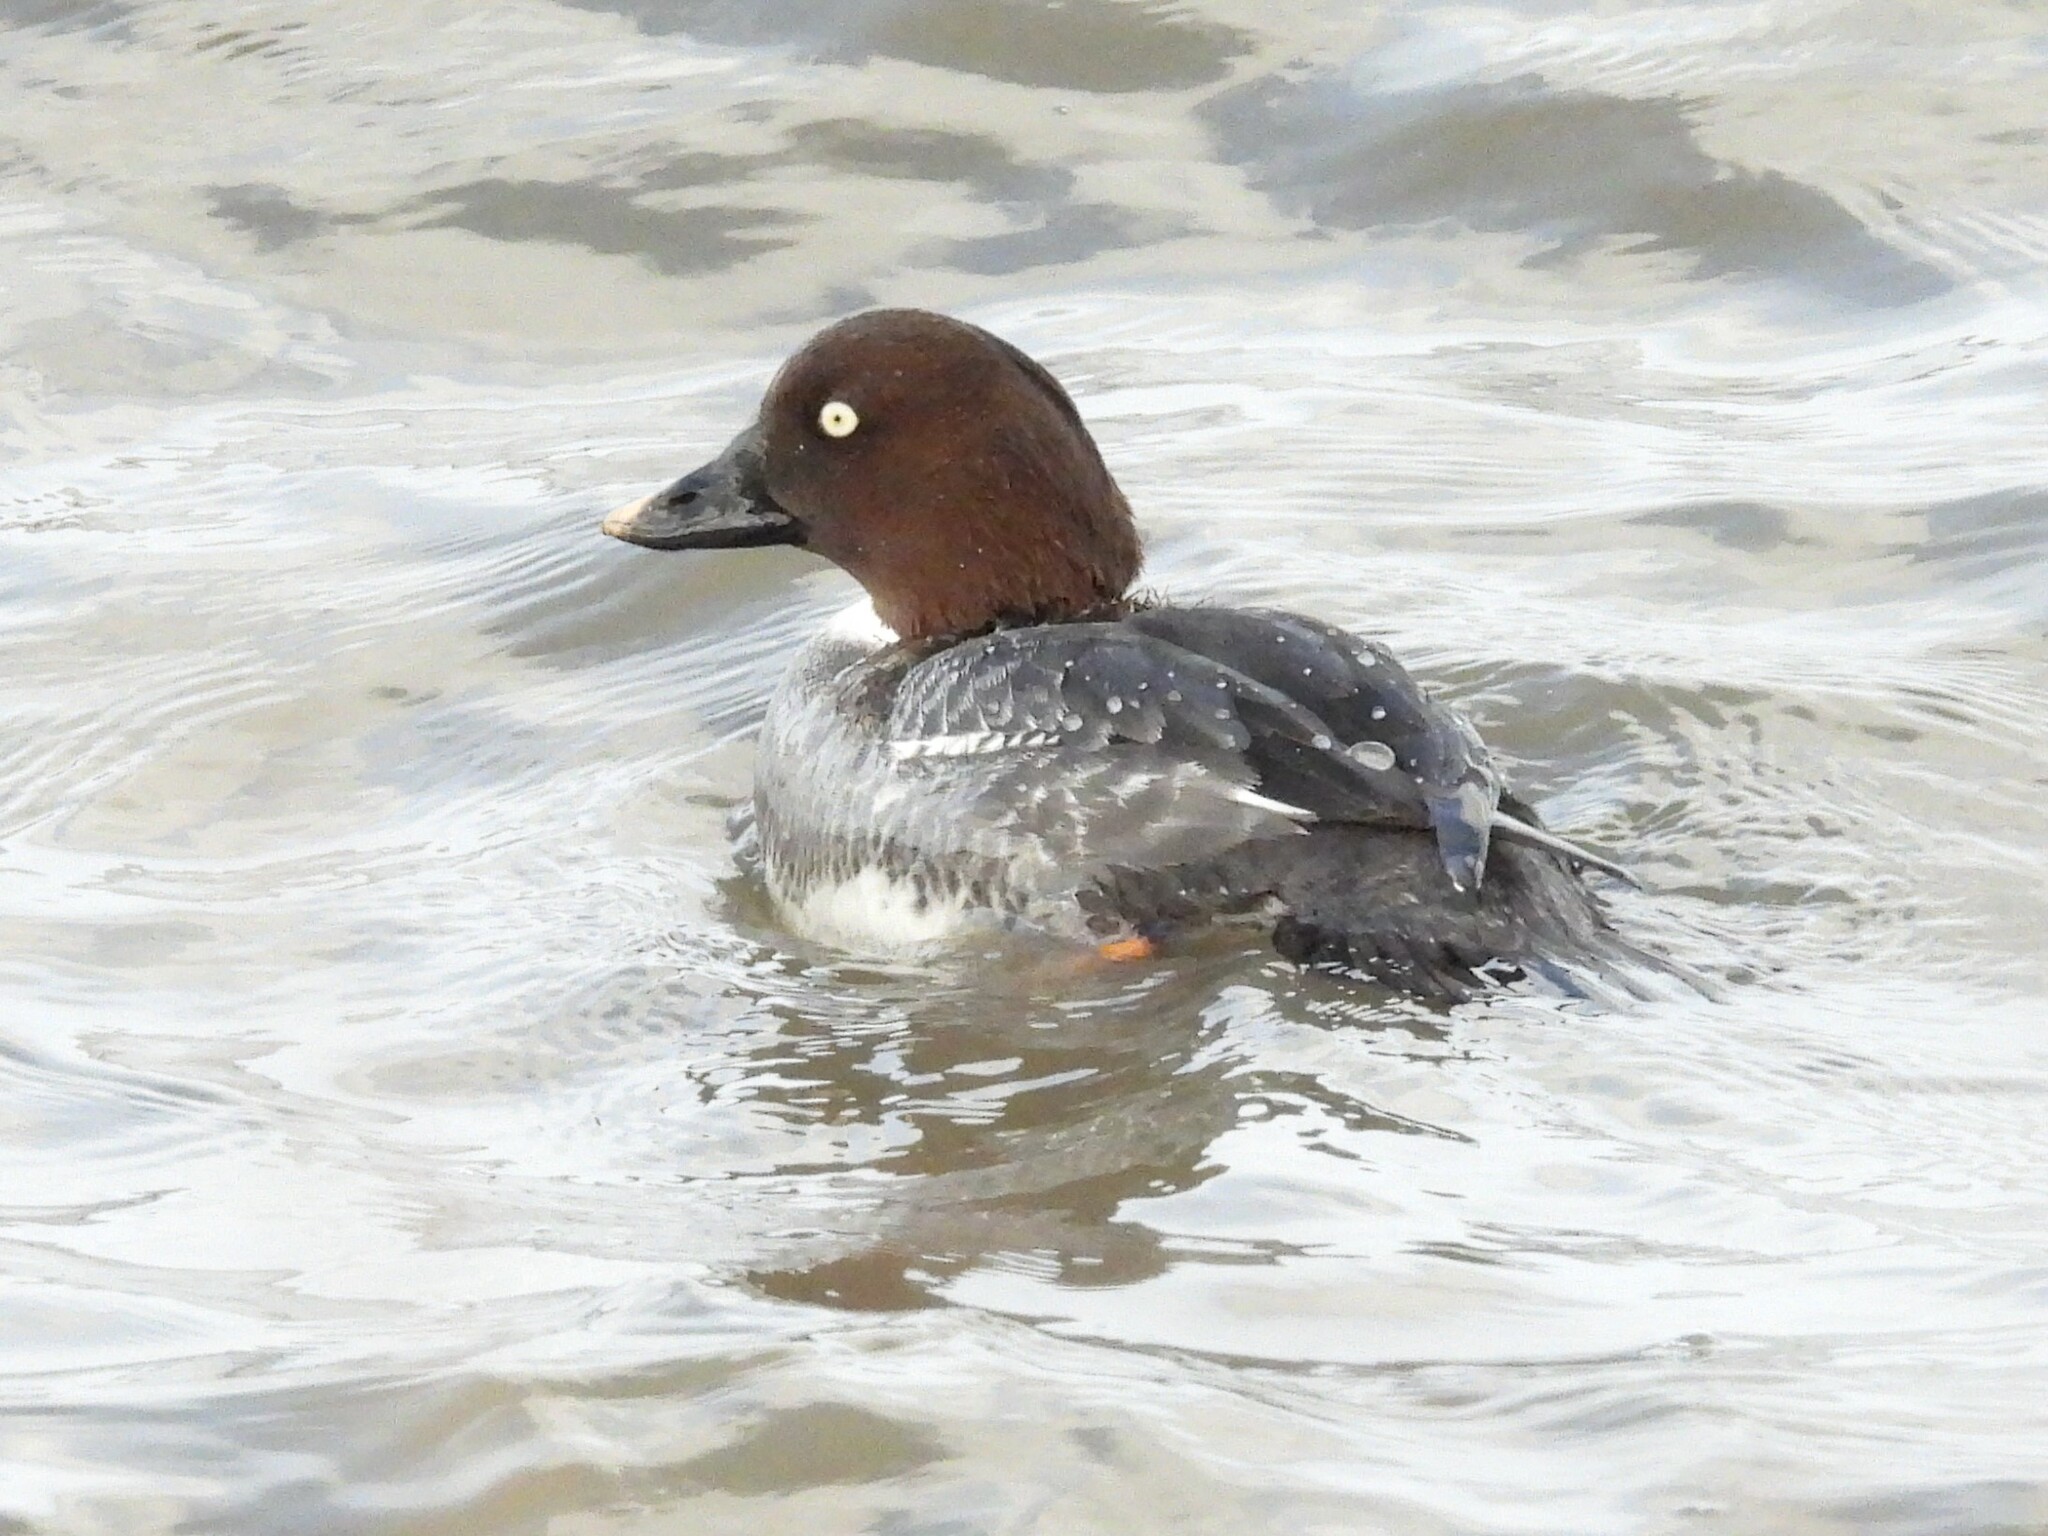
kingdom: Animalia
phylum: Chordata
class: Aves
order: Anseriformes
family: Anatidae
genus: Bucephala
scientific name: Bucephala clangula
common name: Common goldeneye
